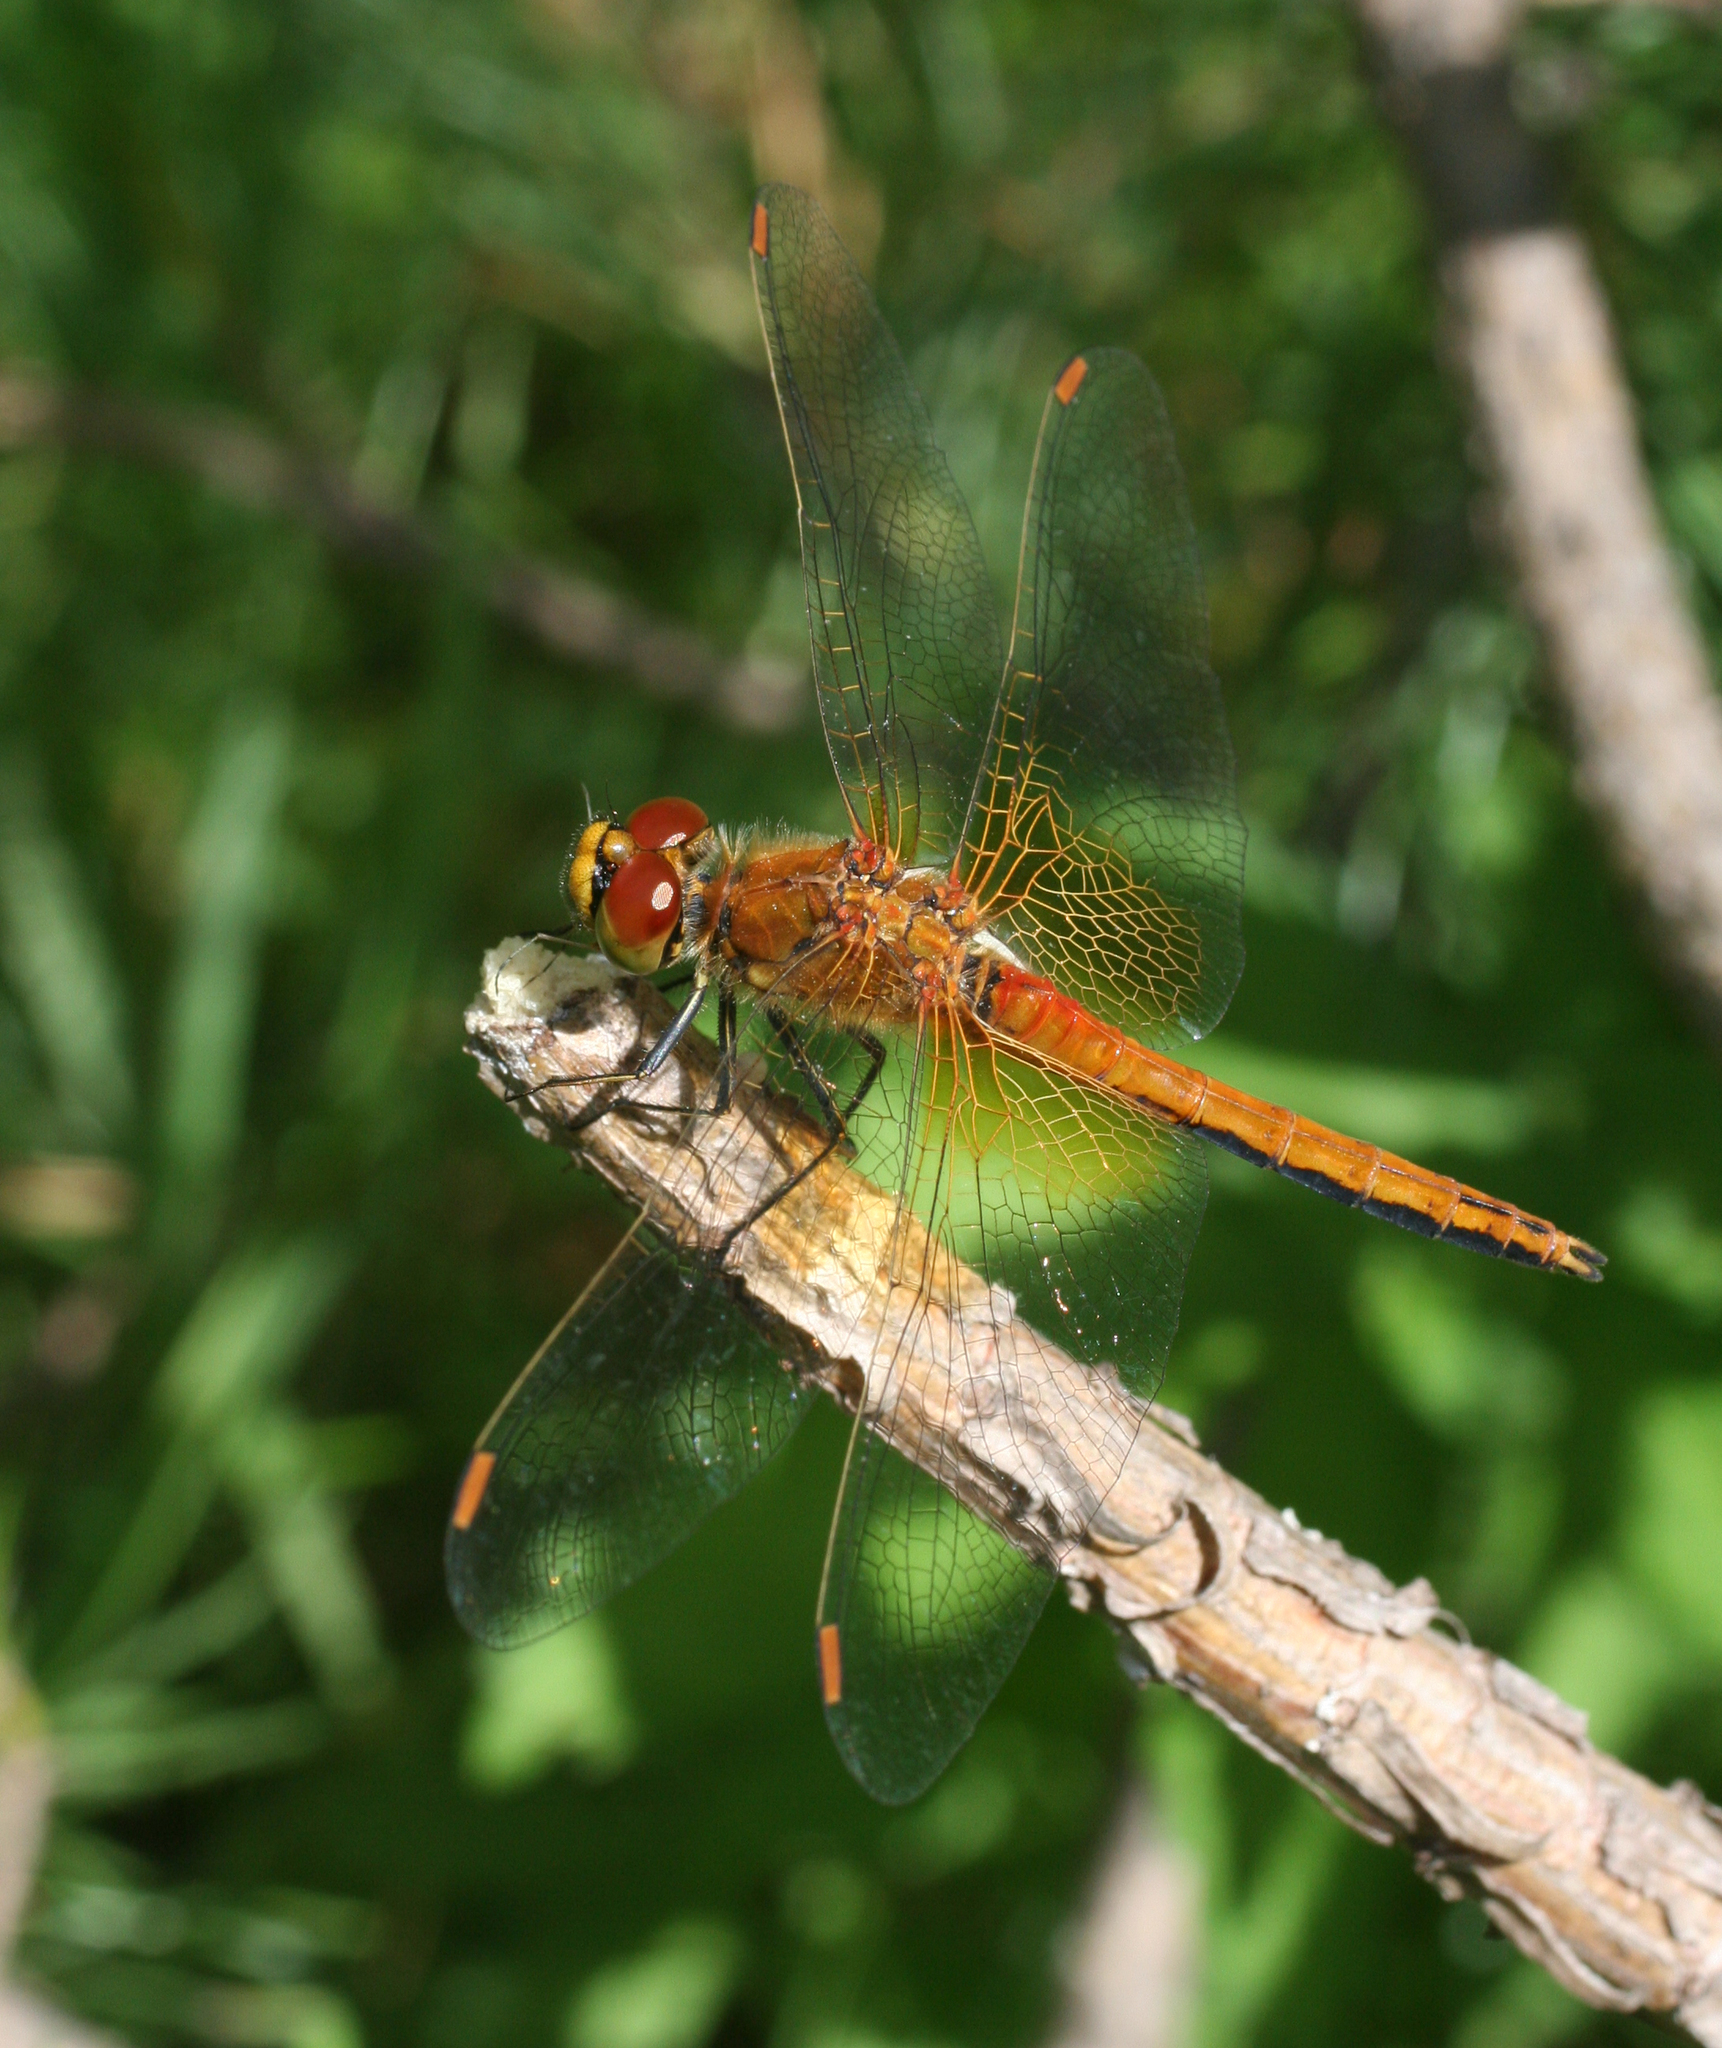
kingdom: Animalia
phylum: Arthropoda
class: Insecta
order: Odonata
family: Libellulidae
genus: Sympetrum
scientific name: Sympetrum flaveolum
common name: Yellow-winged darter
